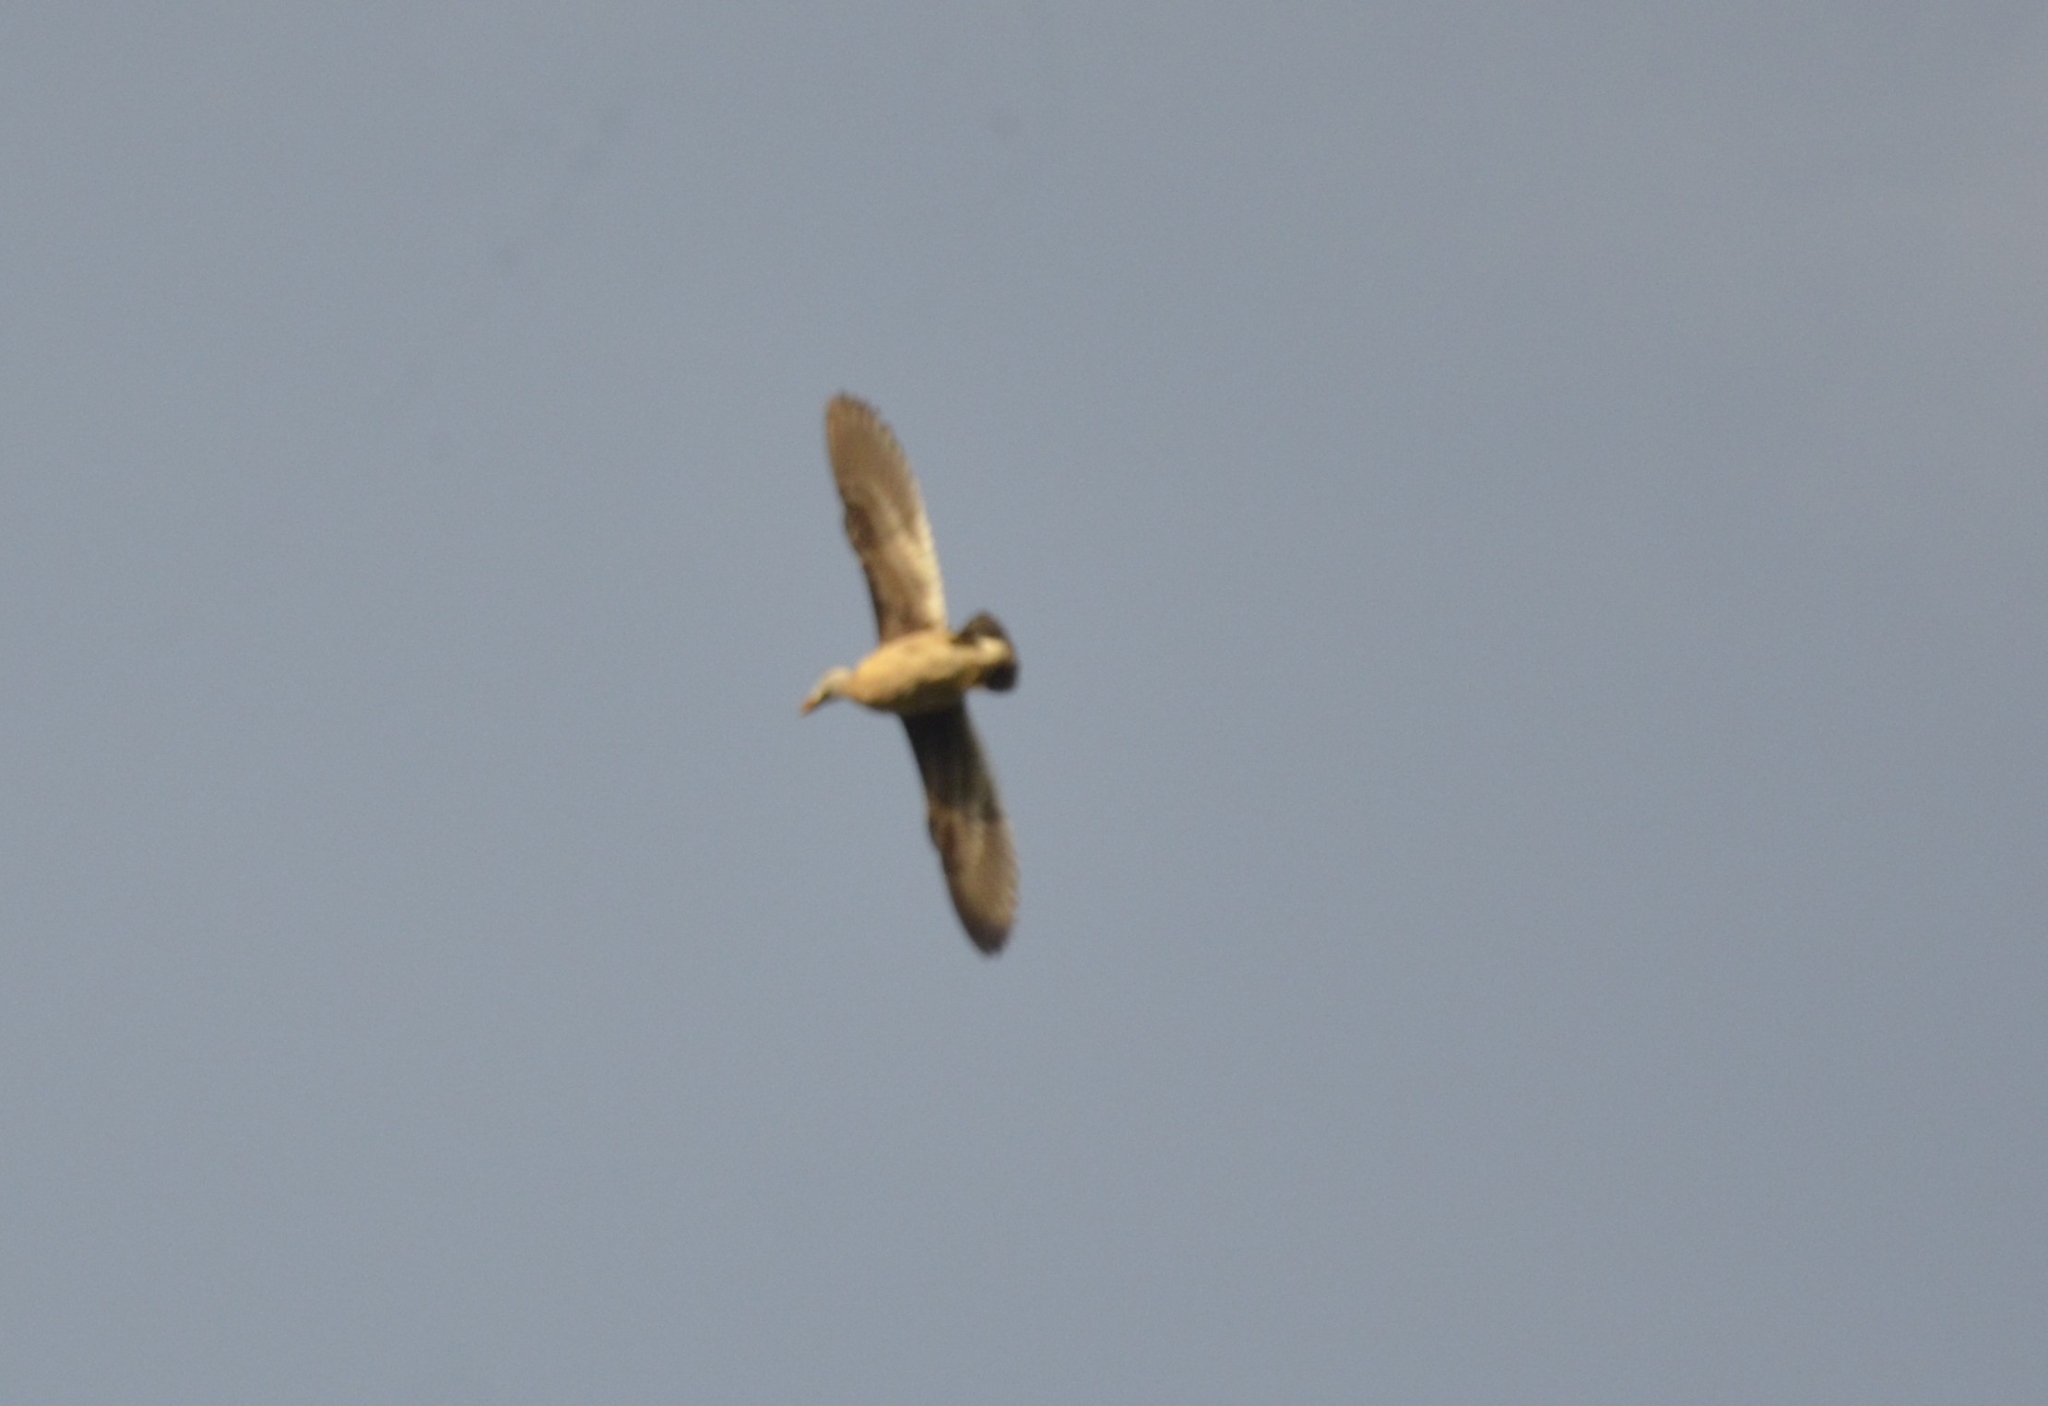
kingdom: Animalia
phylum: Chordata
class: Aves
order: Anseriformes
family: Anatidae
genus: Nettapus
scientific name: Nettapus coromandelianus
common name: Cotton pygmy-goose
